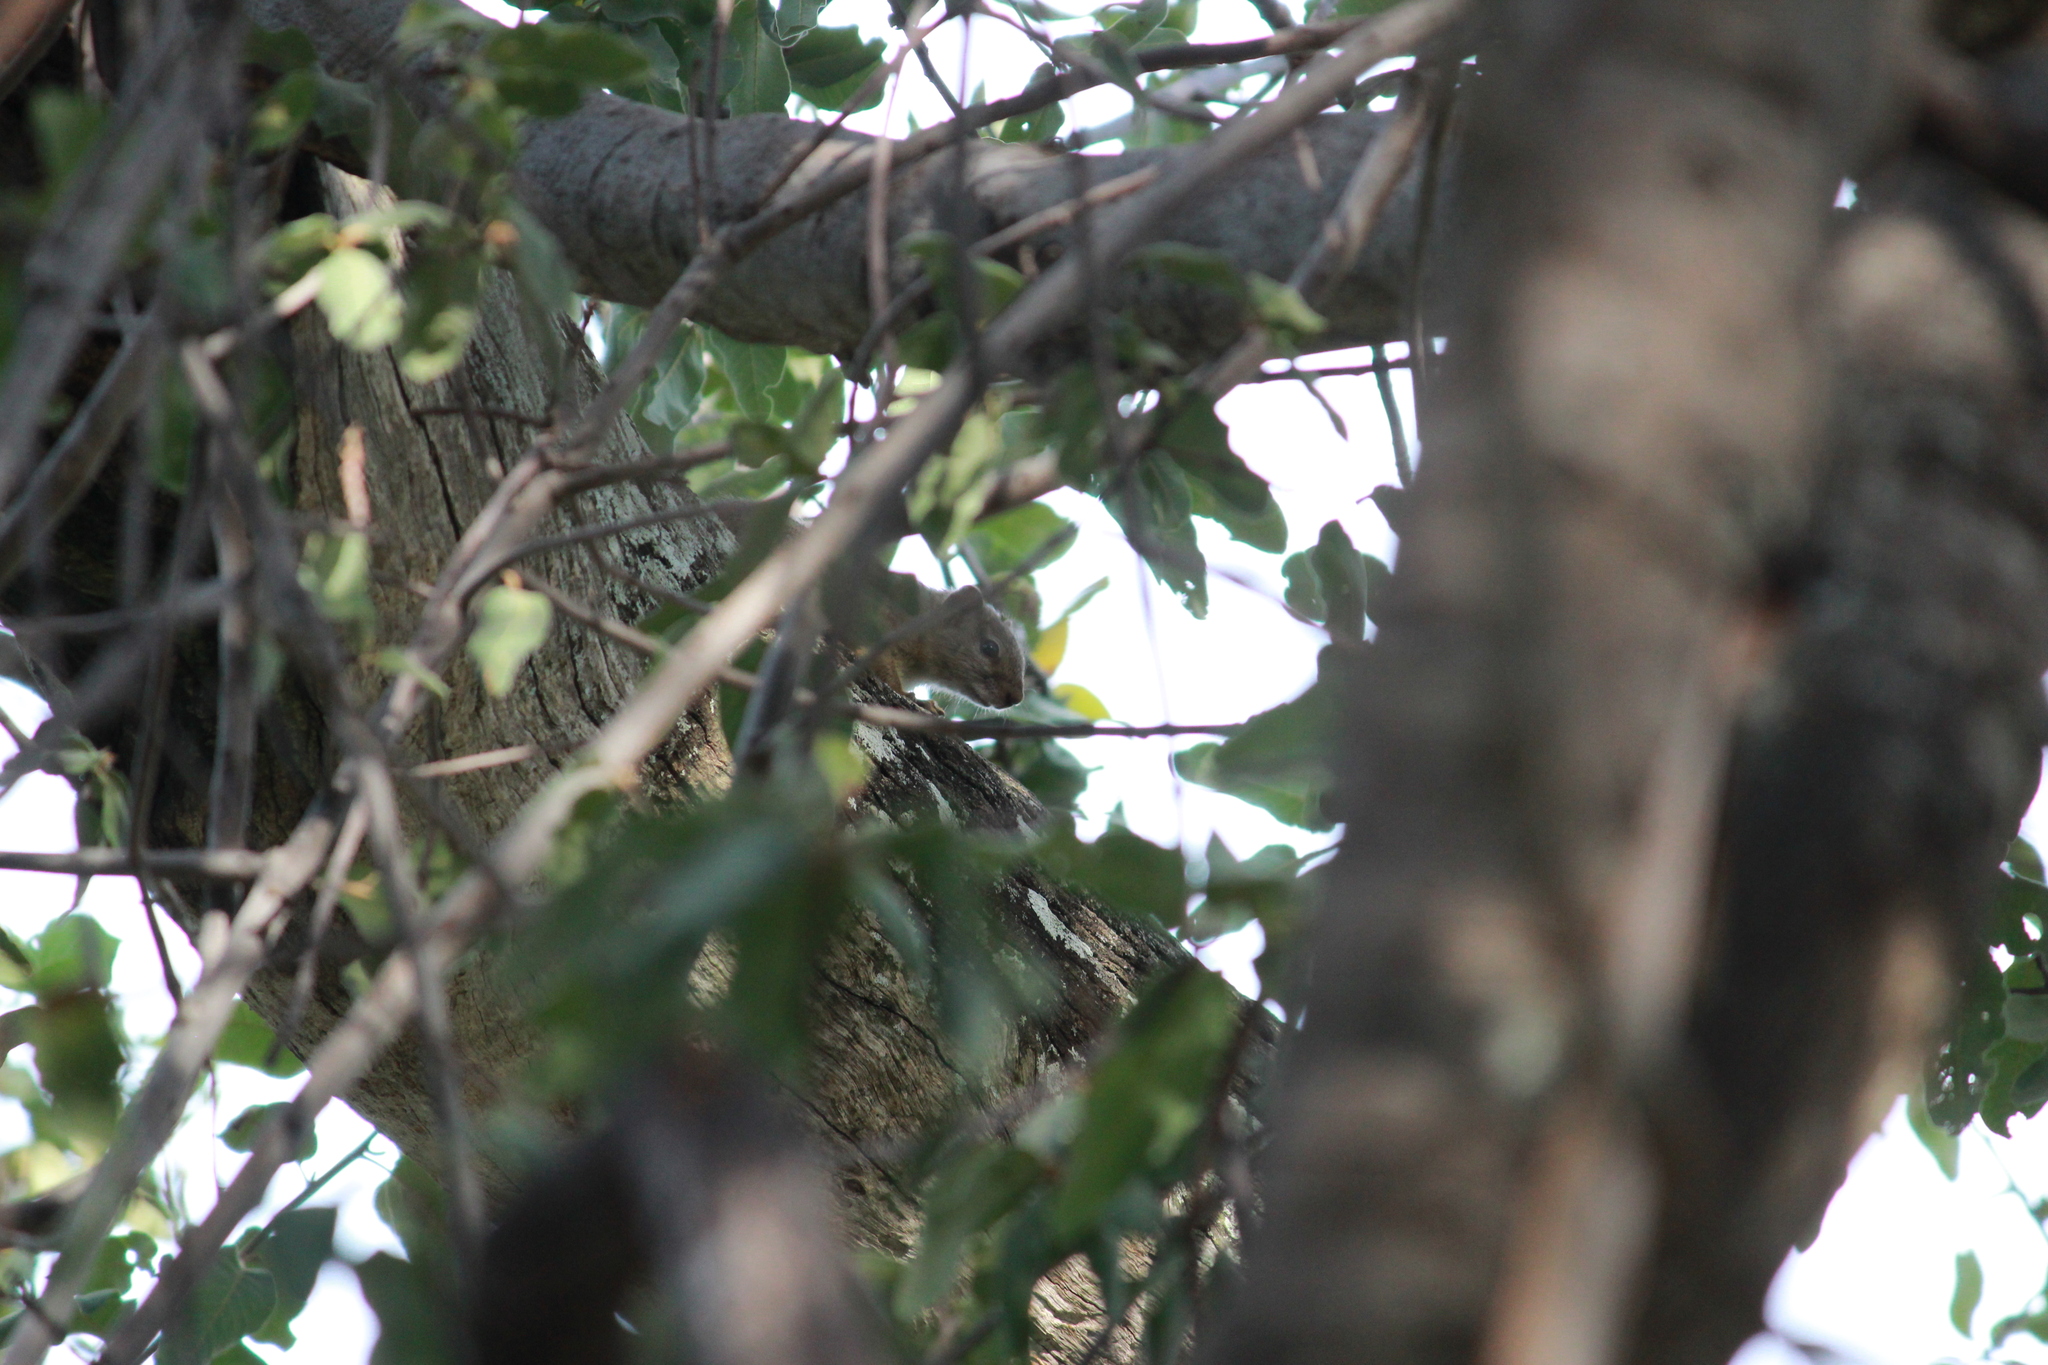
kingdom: Animalia
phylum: Chordata
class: Mammalia
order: Rodentia
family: Sciuridae
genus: Paraxerus
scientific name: Paraxerus cepapi
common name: Smith's bush squirrel
